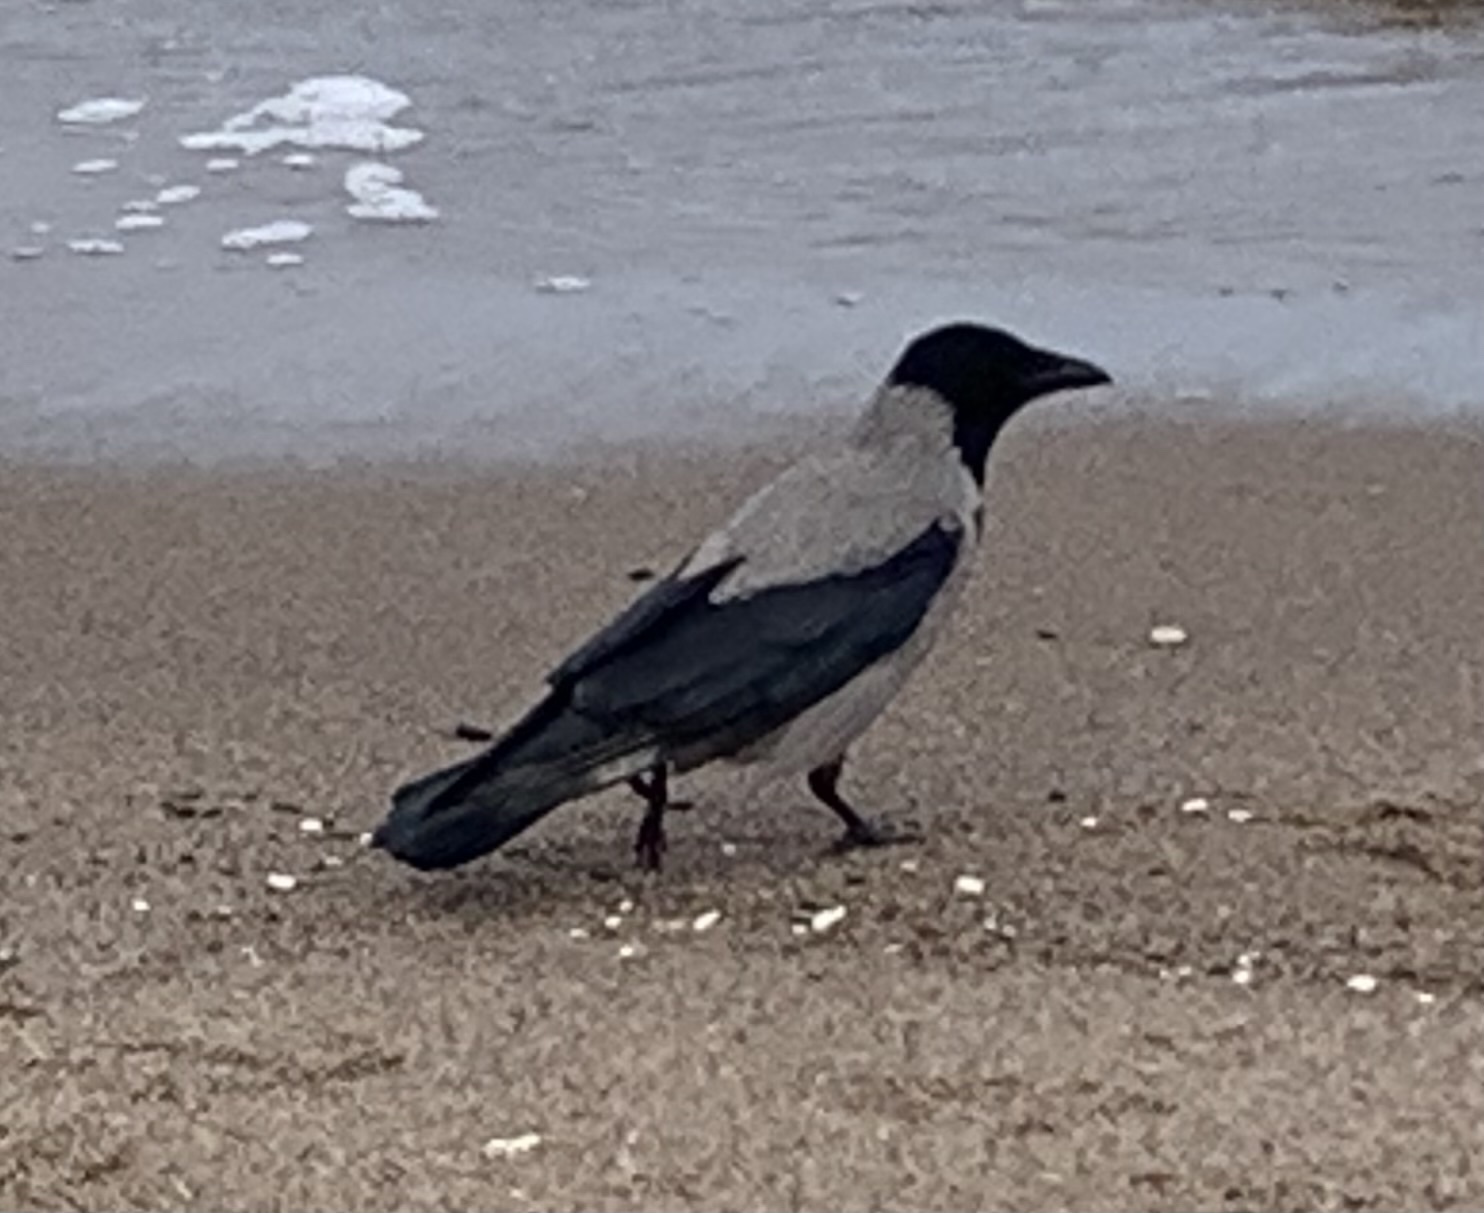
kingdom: Animalia
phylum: Chordata
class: Aves
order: Passeriformes
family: Corvidae
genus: Corvus
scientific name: Corvus cornix
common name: Hooded crow
